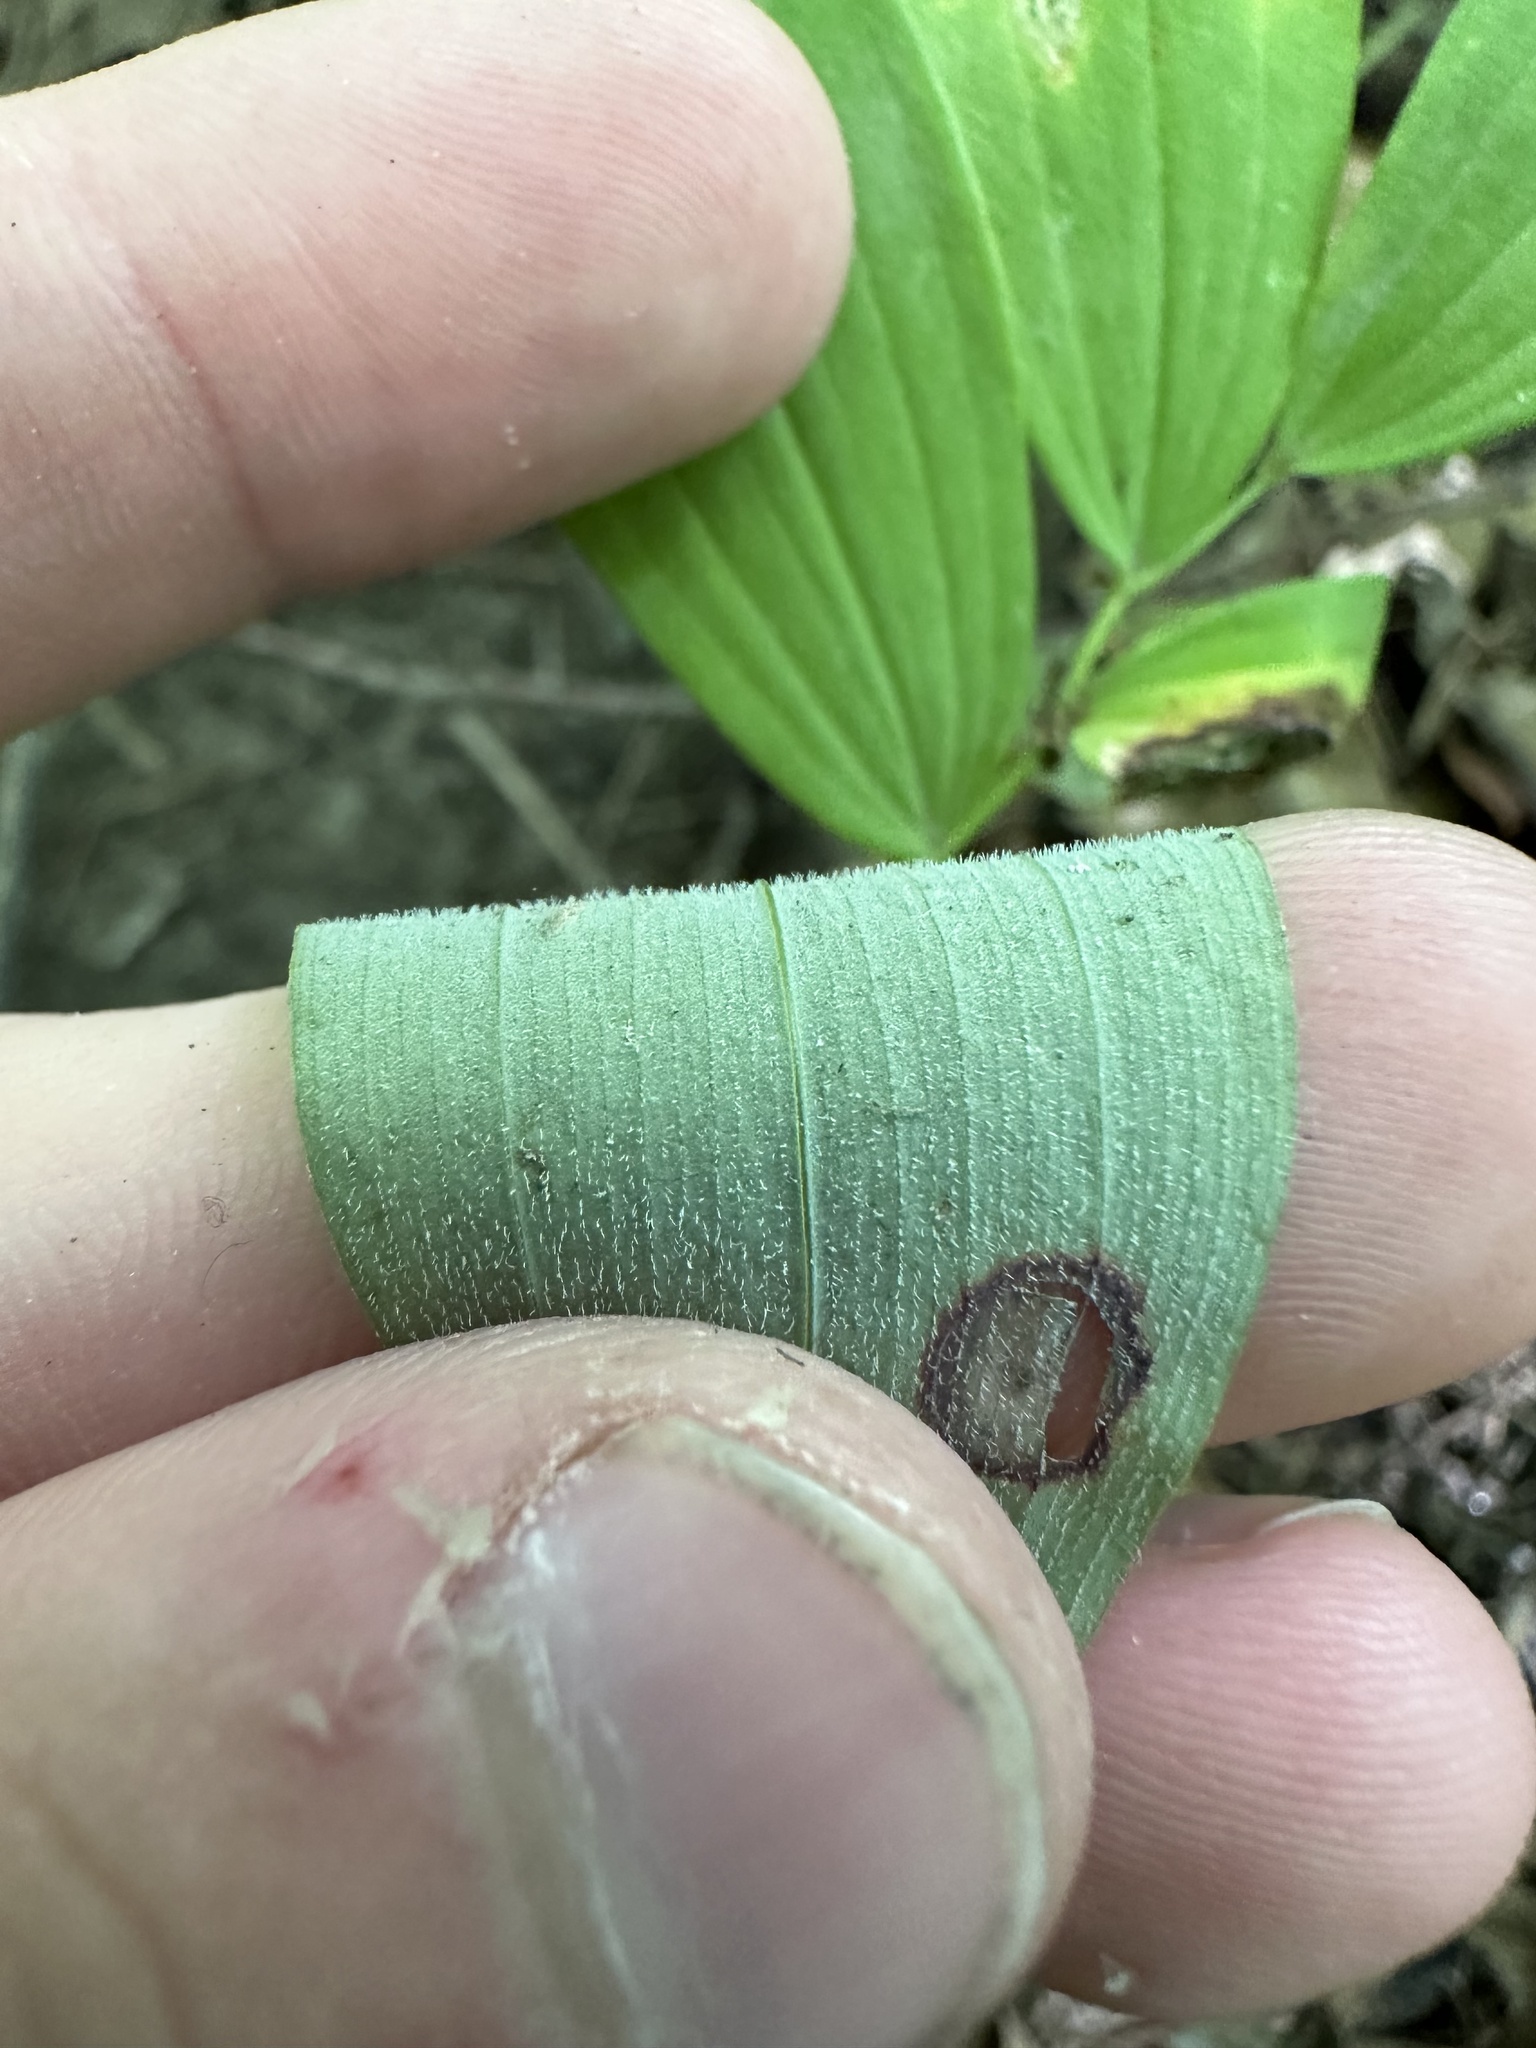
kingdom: Plantae
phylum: Tracheophyta
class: Liliopsida
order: Asparagales
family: Asparagaceae
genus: Polygonatum
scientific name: Polygonatum pubescens
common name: Downy solomon's seal
